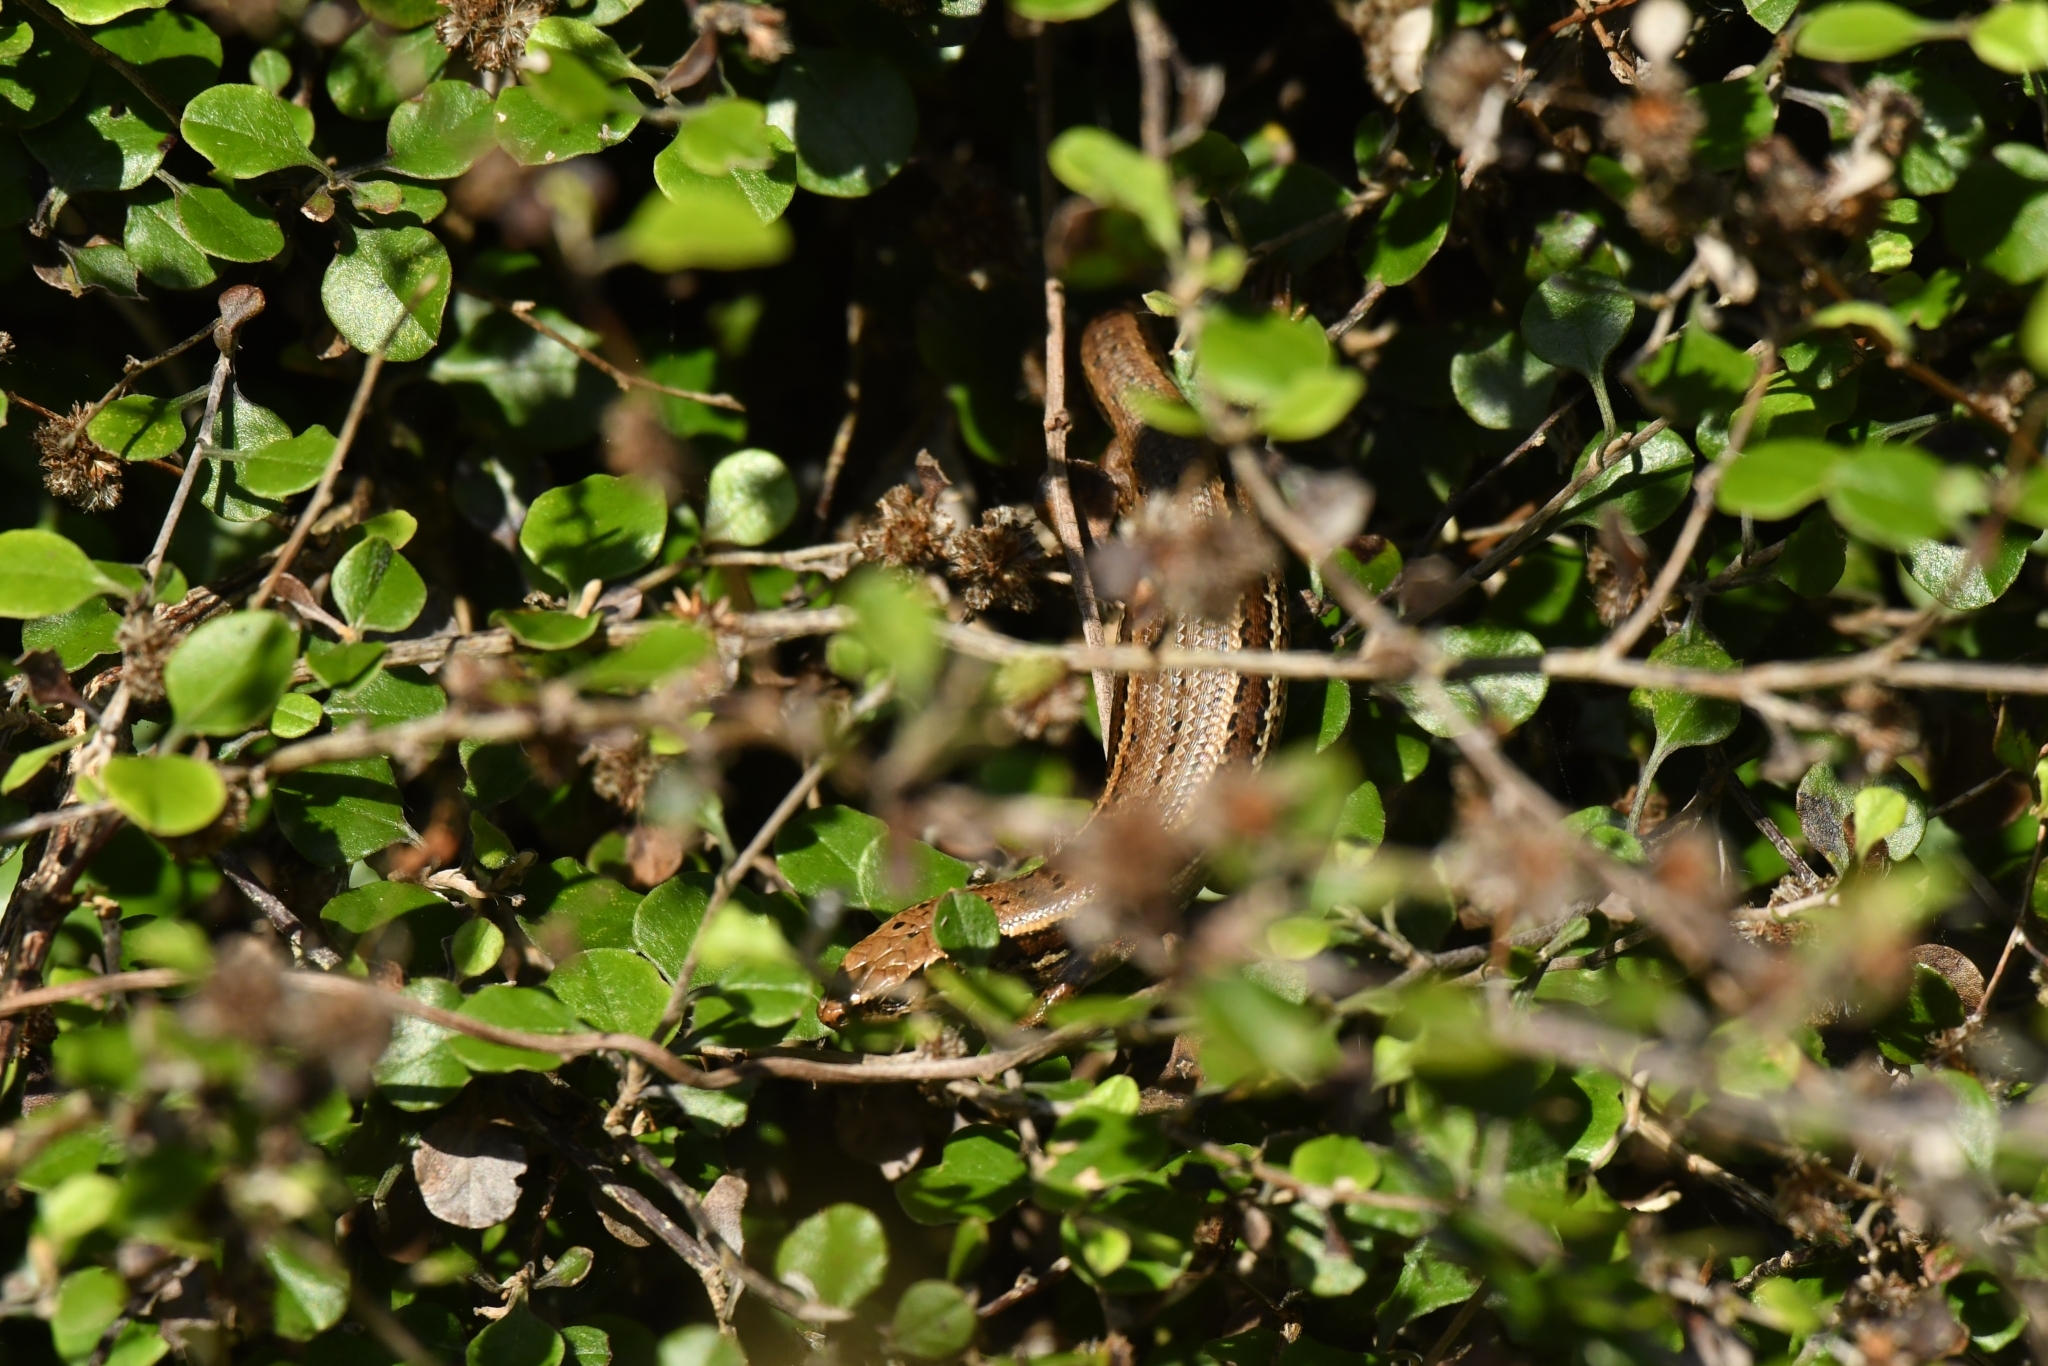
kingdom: Animalia
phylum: Chordata
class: Squamata
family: Scincidae
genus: Oligosoma
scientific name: Oligosoma inconspicuum
